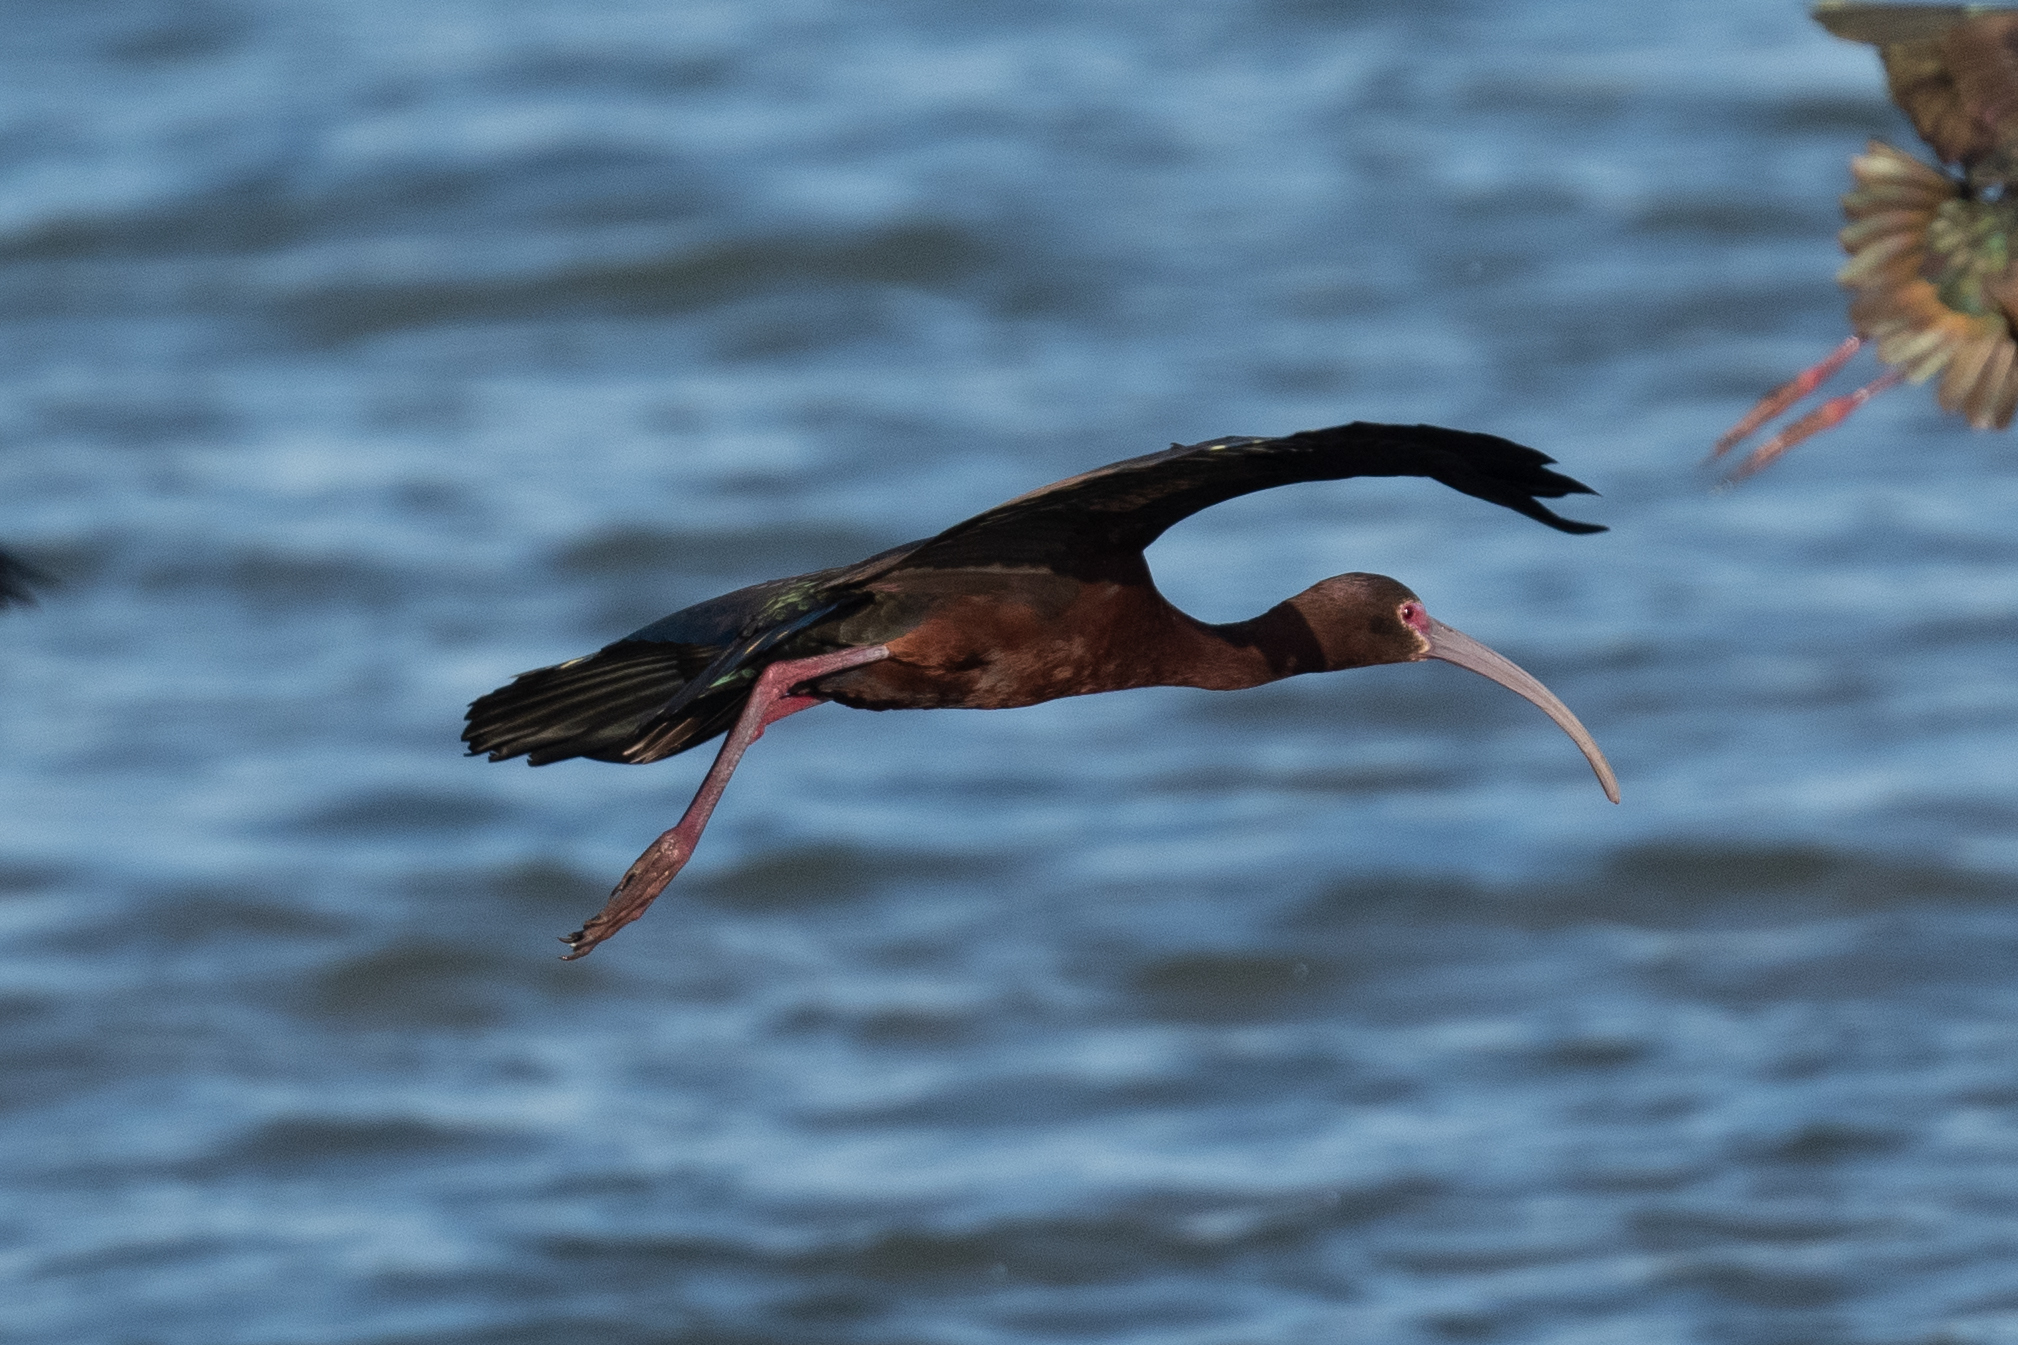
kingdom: Animalia
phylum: Chordata
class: Aves
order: Pelecaniformes
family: Threskiornithidae
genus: Plegadis
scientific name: Plegadis chihi
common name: White-faced ibis
